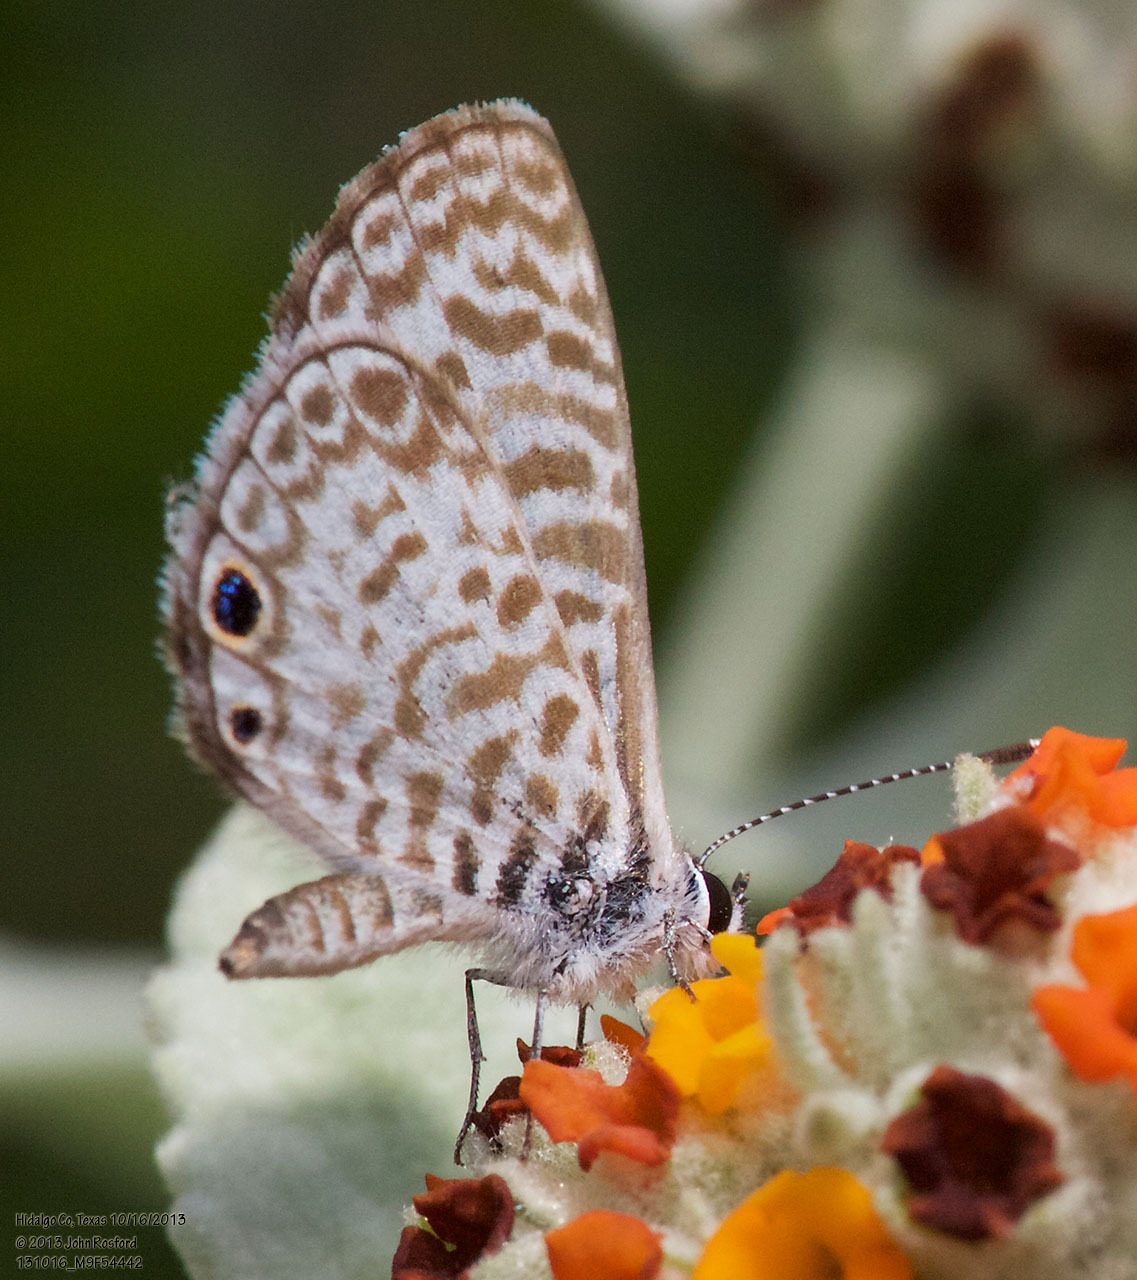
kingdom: Animalia
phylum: Arthropoda
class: Insecta
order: Lepidoptera
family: Lycaenidae
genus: Leptotes
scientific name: Leptotes cassius
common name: Cassius blue
